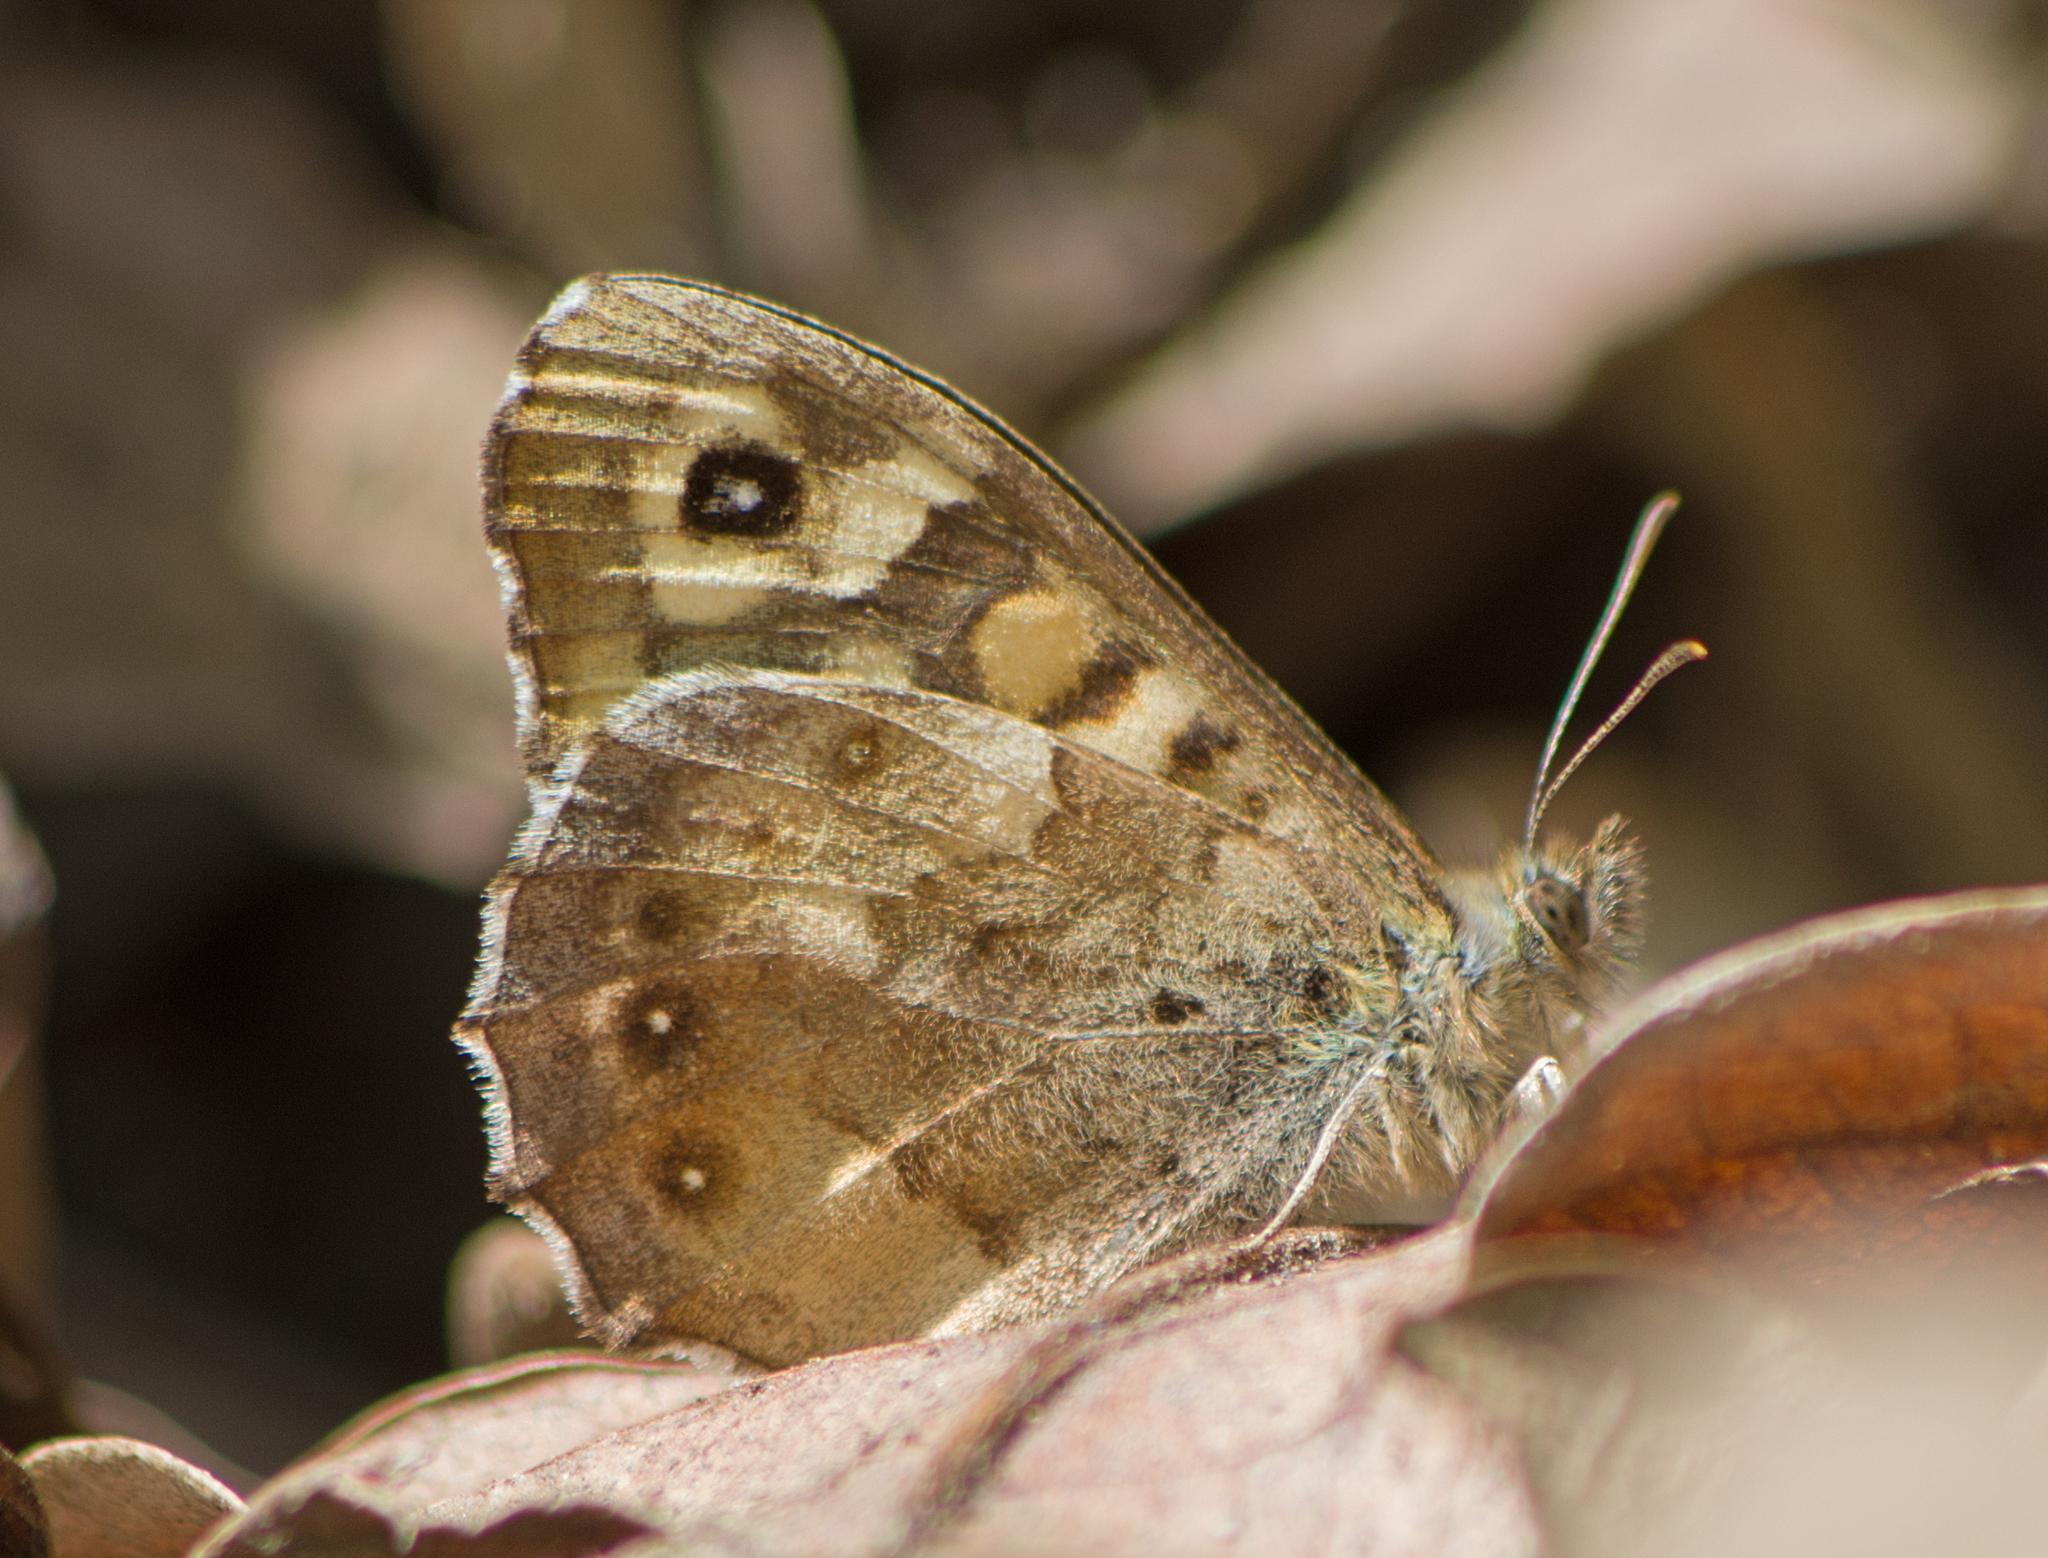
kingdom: Animalia
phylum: Arthropoda
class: Insecta
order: Lepidoptera
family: Nymphalidae
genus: Pararge
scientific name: Pararge aegeria
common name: Speckled wood
